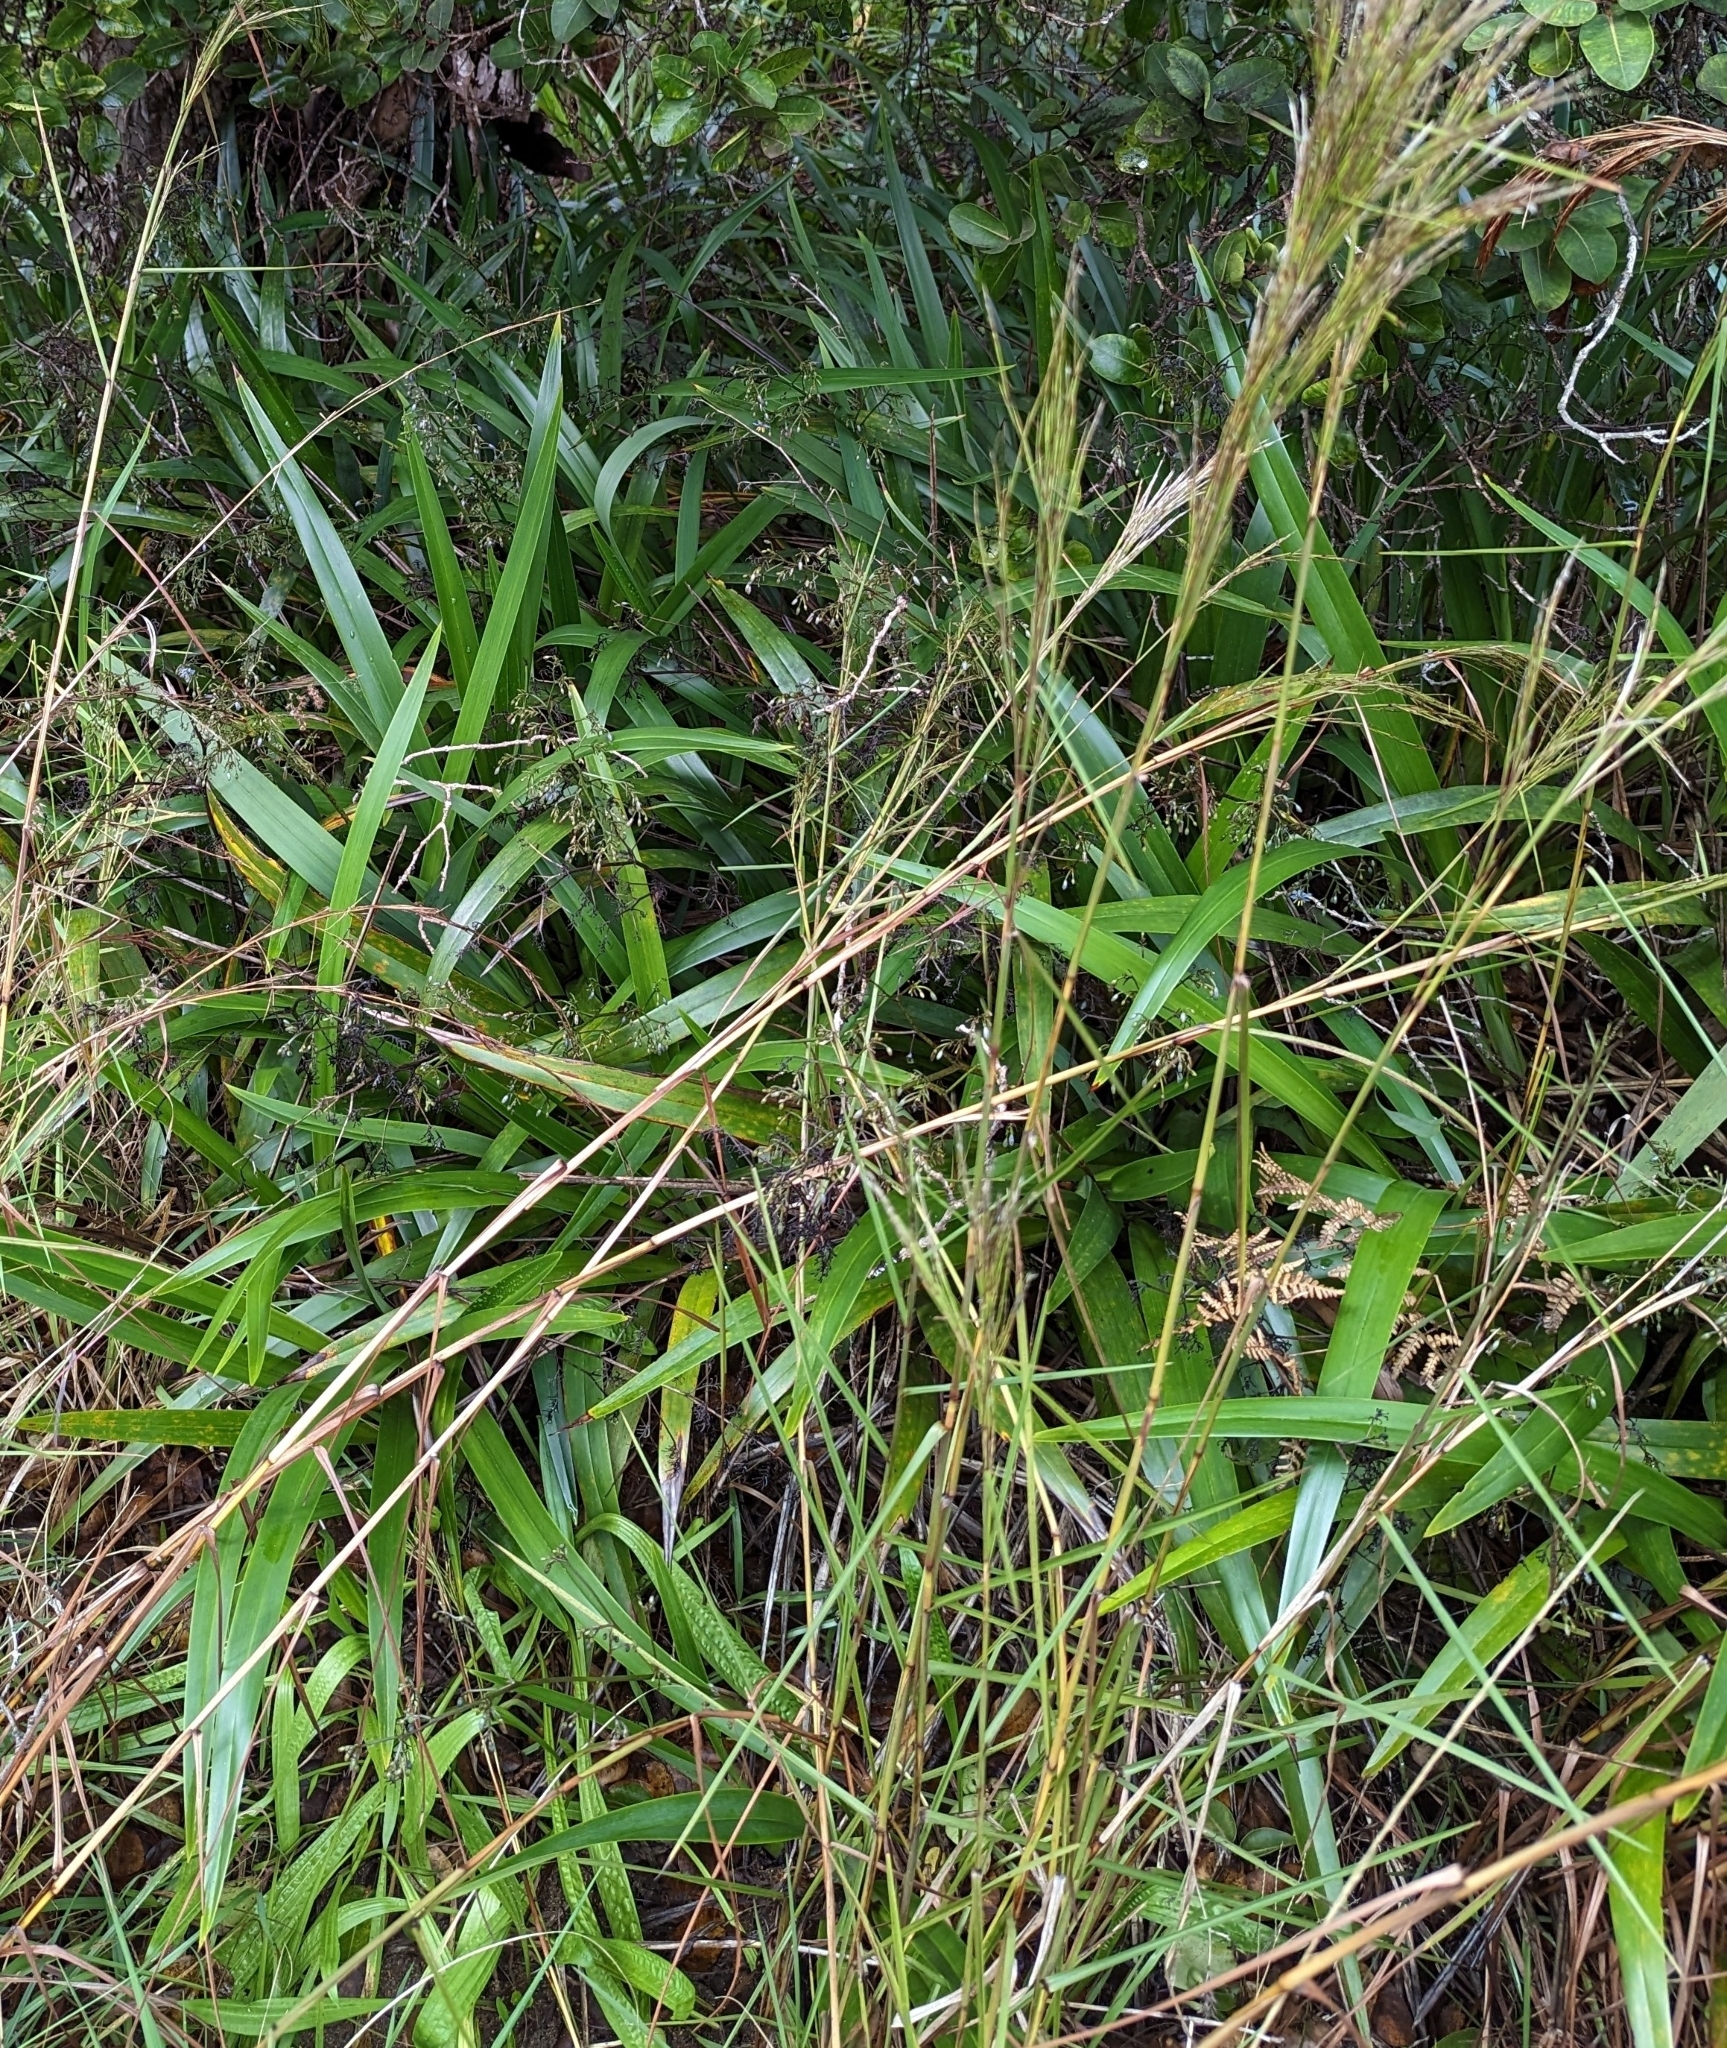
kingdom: Plantae
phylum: Tracheophyta
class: Liliopsida
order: Asparagales
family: Asphodelaceae
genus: Dianella
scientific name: Dianella sandwicensis
